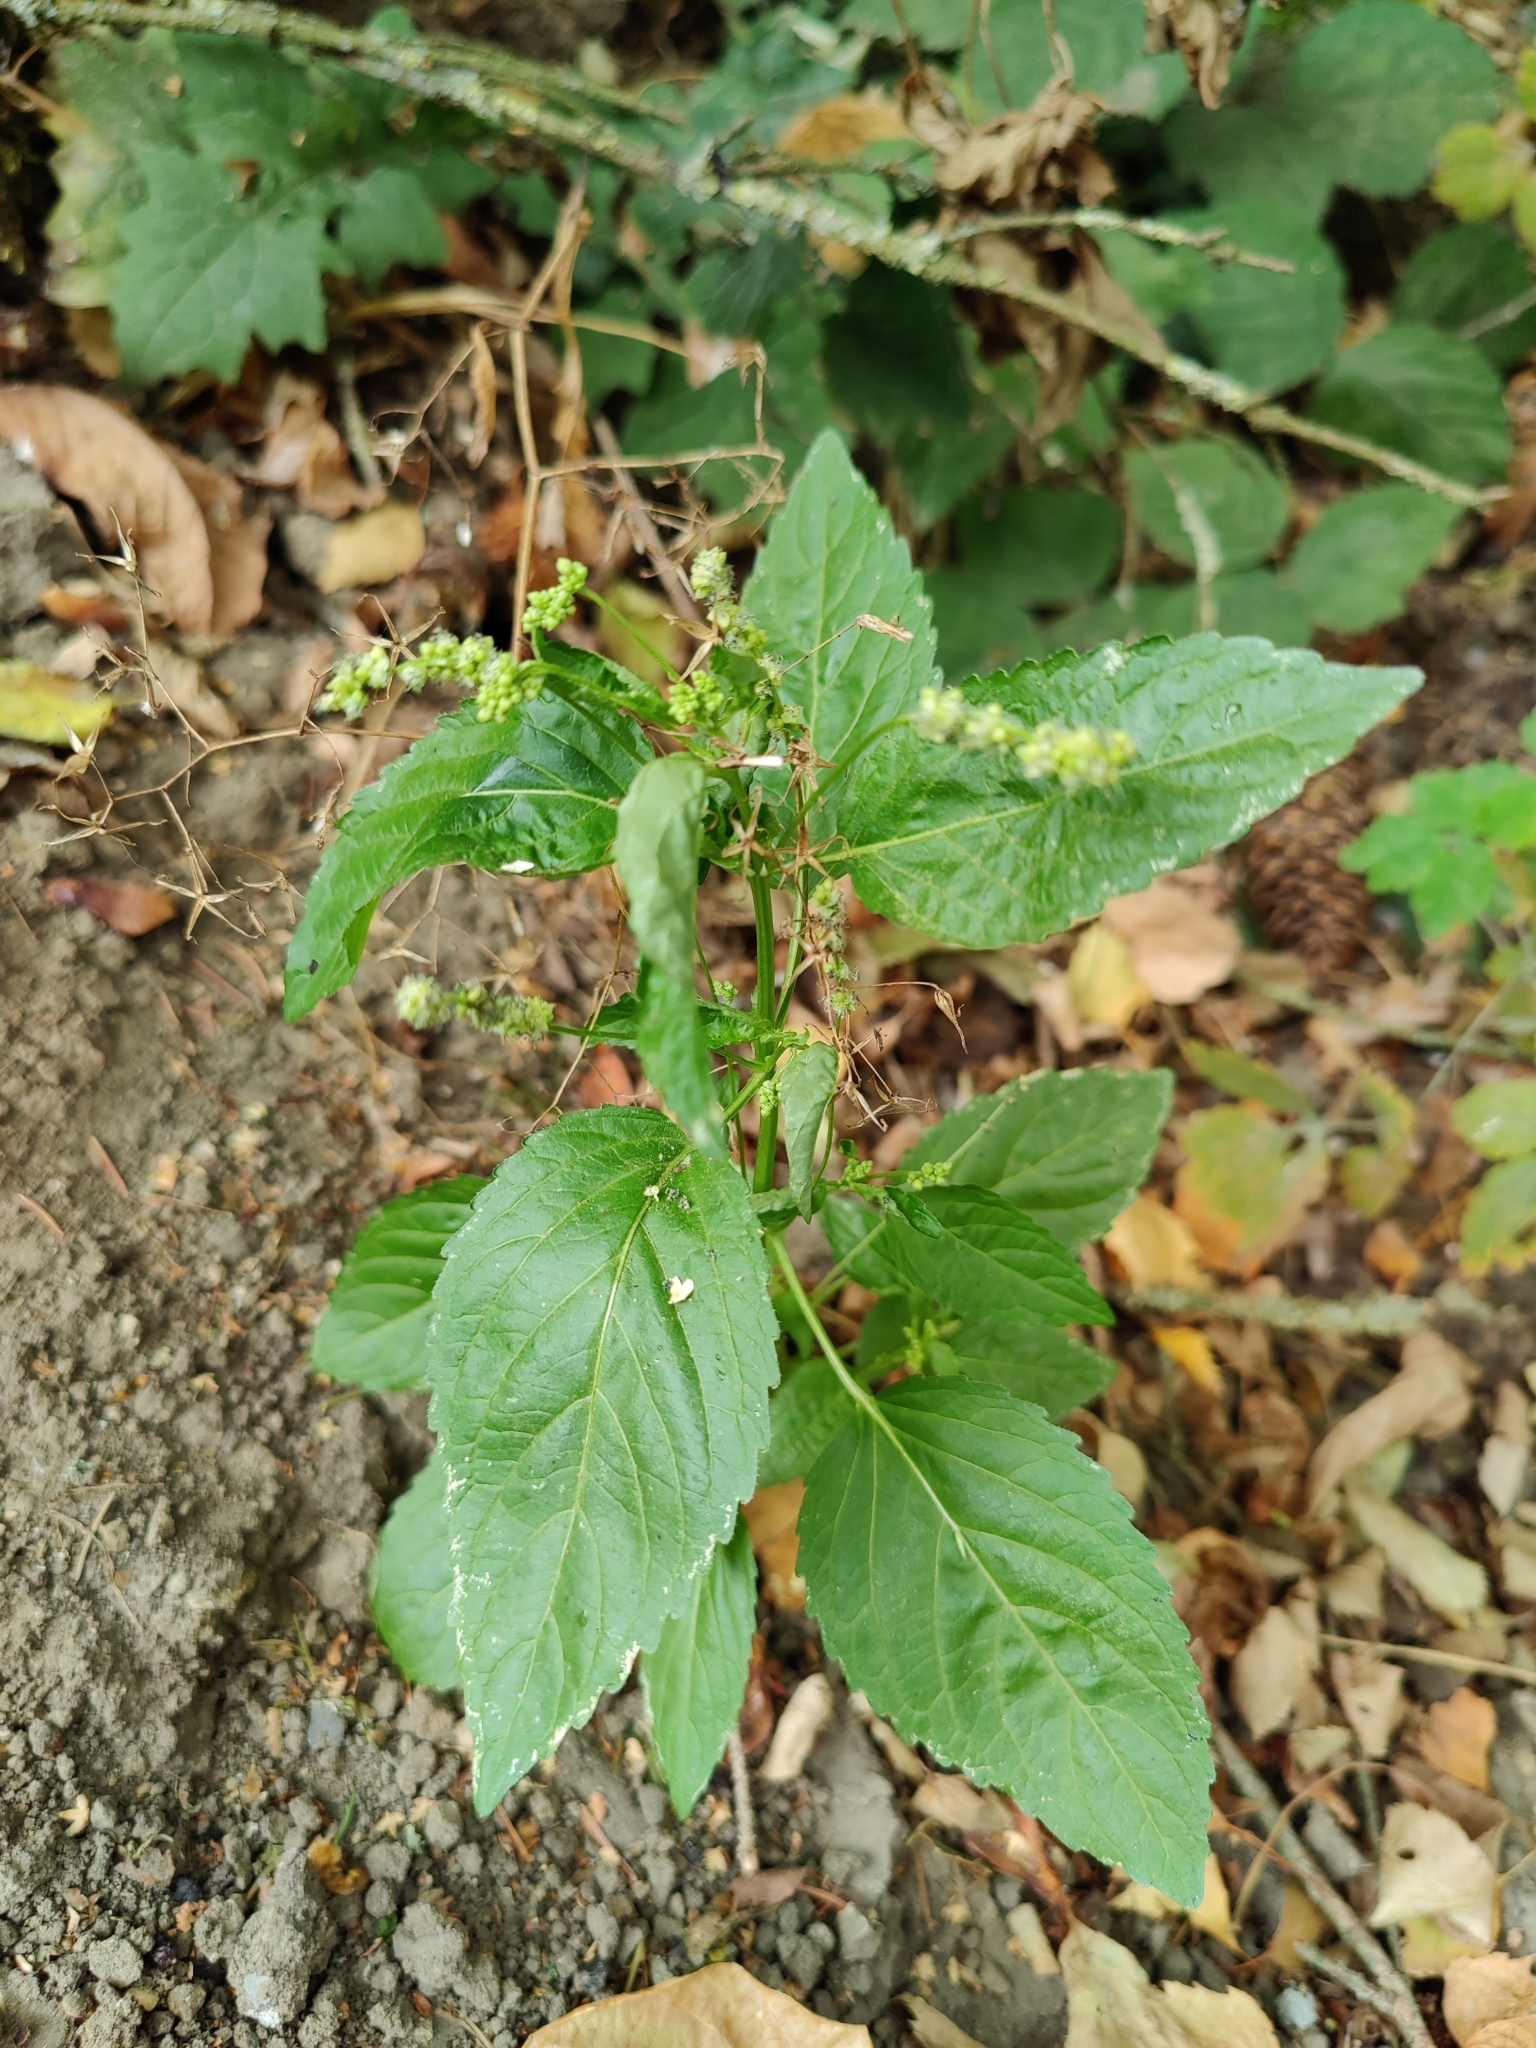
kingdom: Plantae
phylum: Tracheophyta
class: Magnoliopsida
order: Malpighiales
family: Euphorbiaceae
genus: Mercurialis
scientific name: Mercurialis annua
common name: Annual mercury
